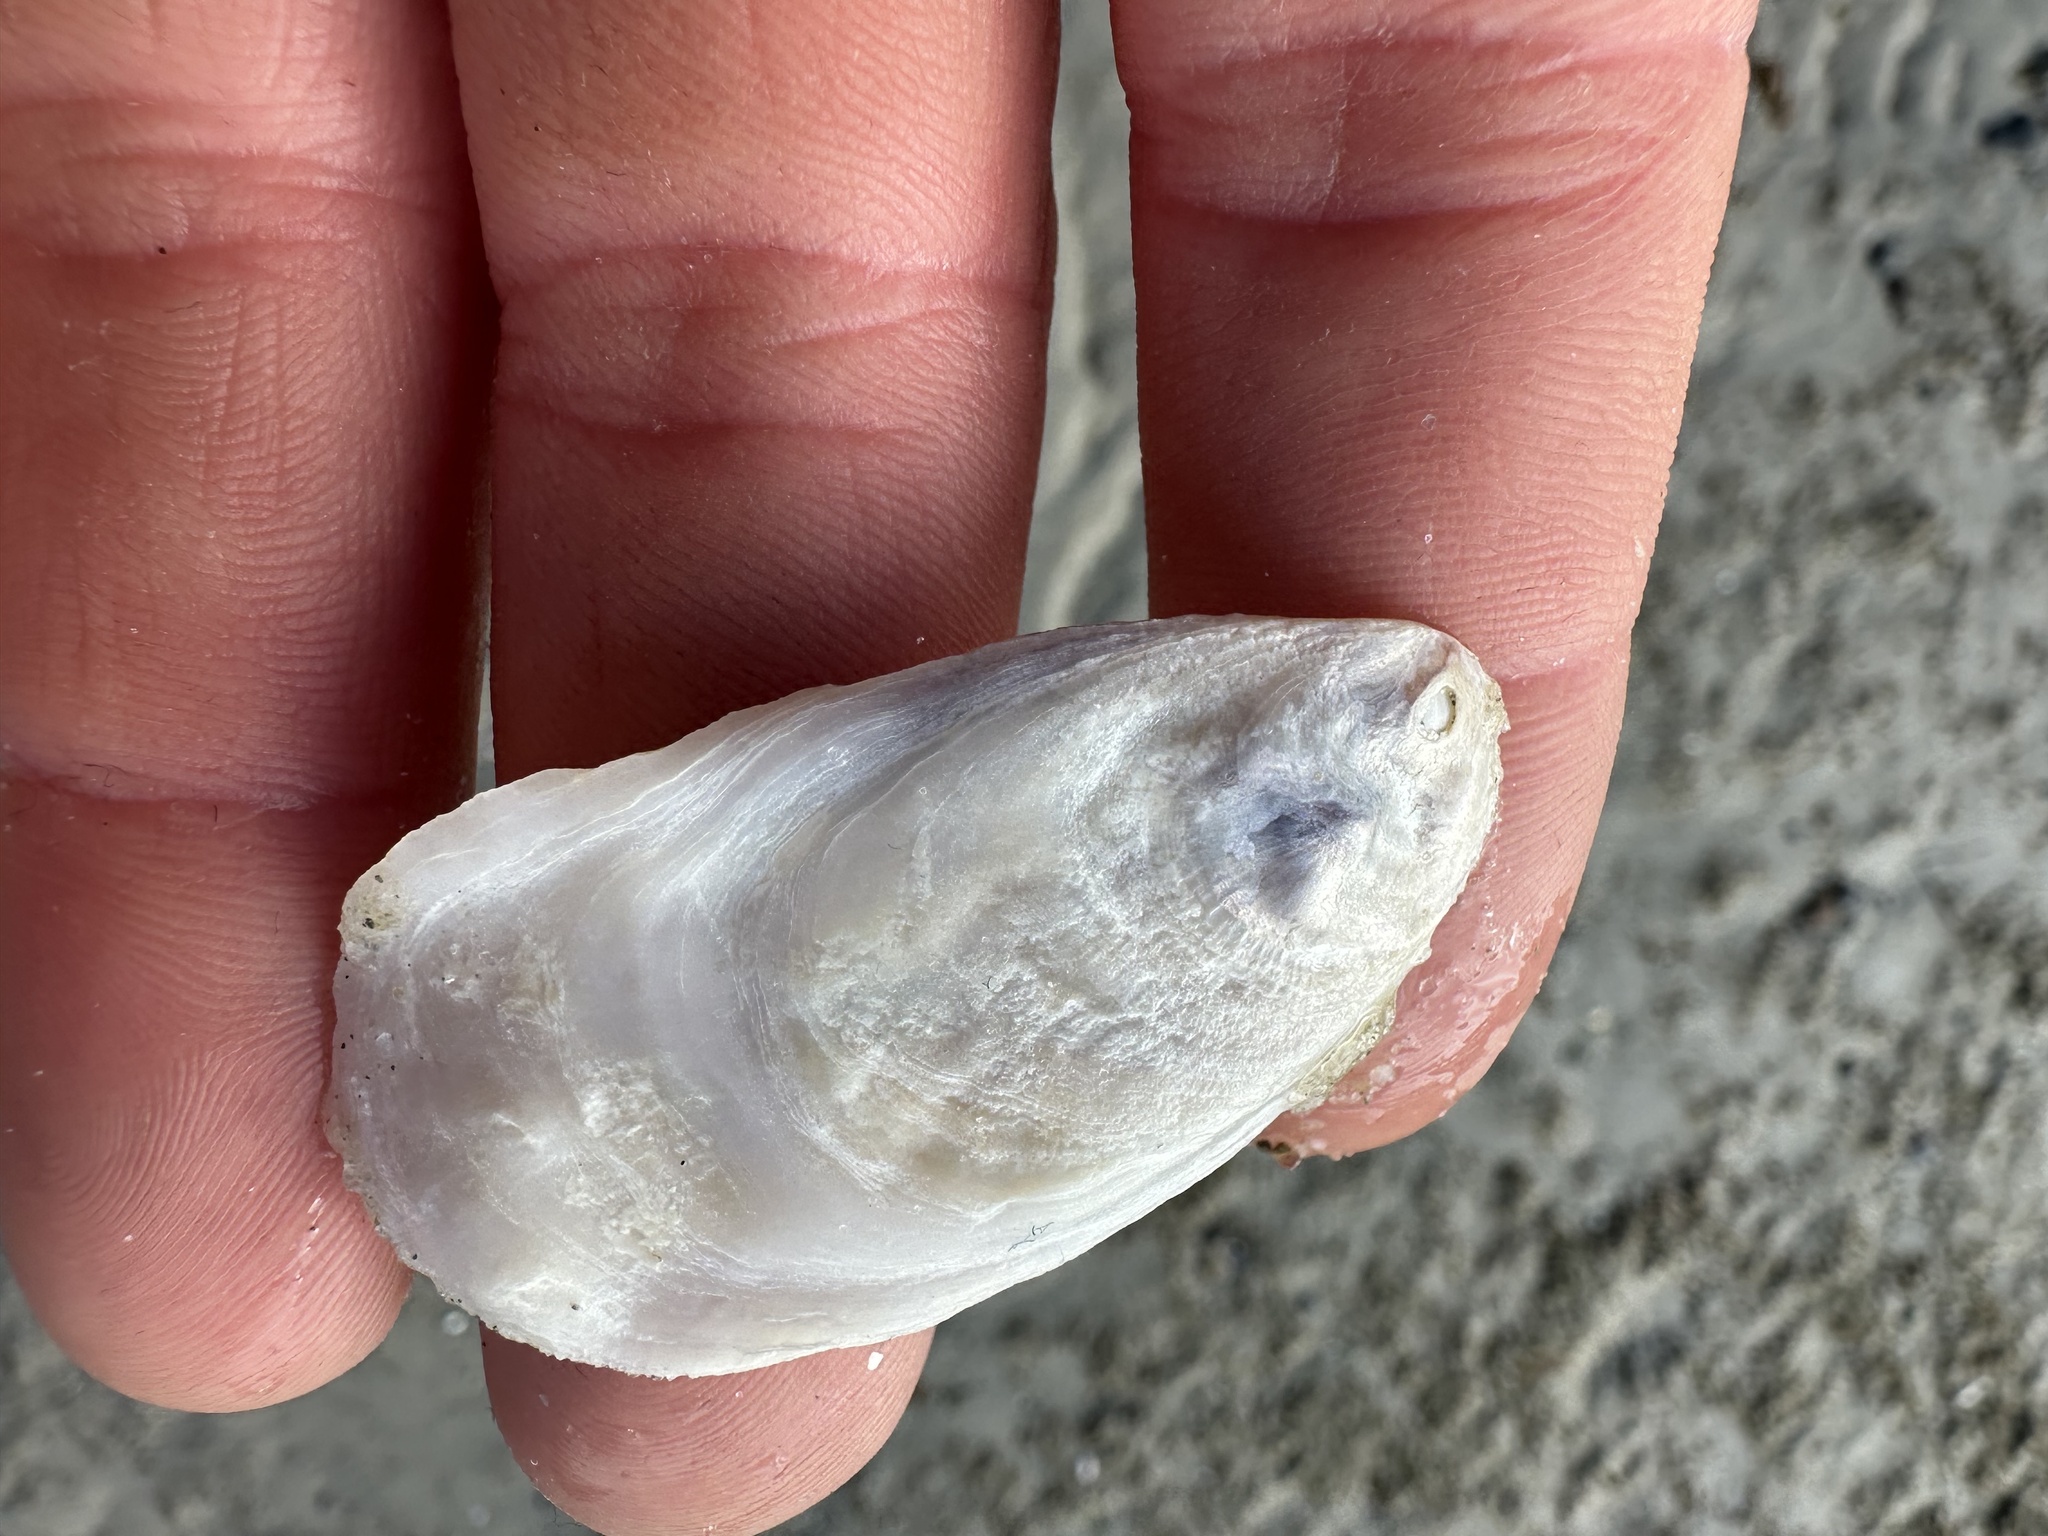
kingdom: Animalia
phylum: Mollusca
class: Bivalvia
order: Ostreida
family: Ostreidae
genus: Crassostrea
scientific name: Crassostrea virginica
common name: American oyster
